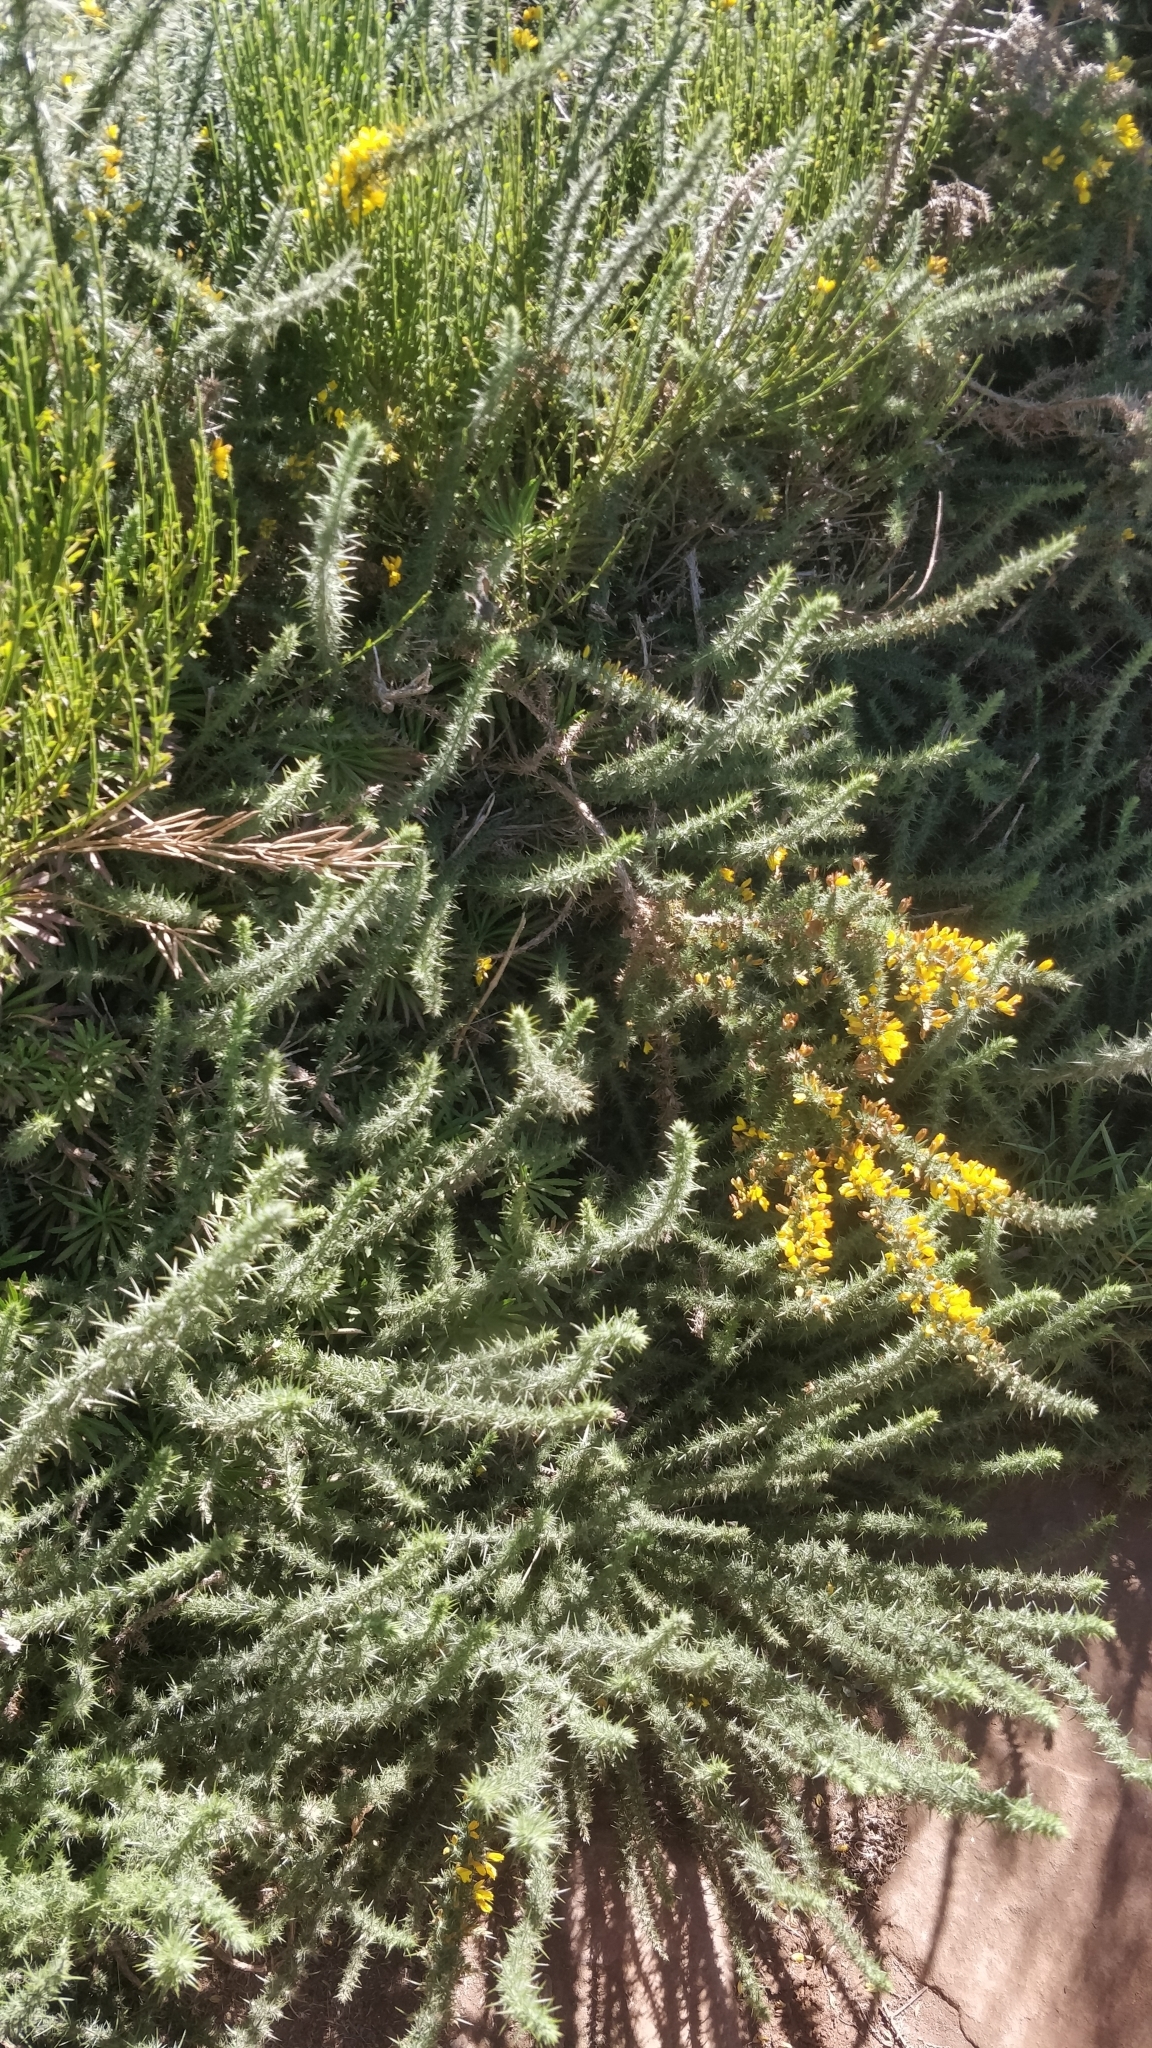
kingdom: Plantae
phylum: Tracheophyta
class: Magnoliopsida
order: Fabales
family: Fabaceae
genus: Ulex
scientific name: Ulex minor
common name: Dwarf gorse
